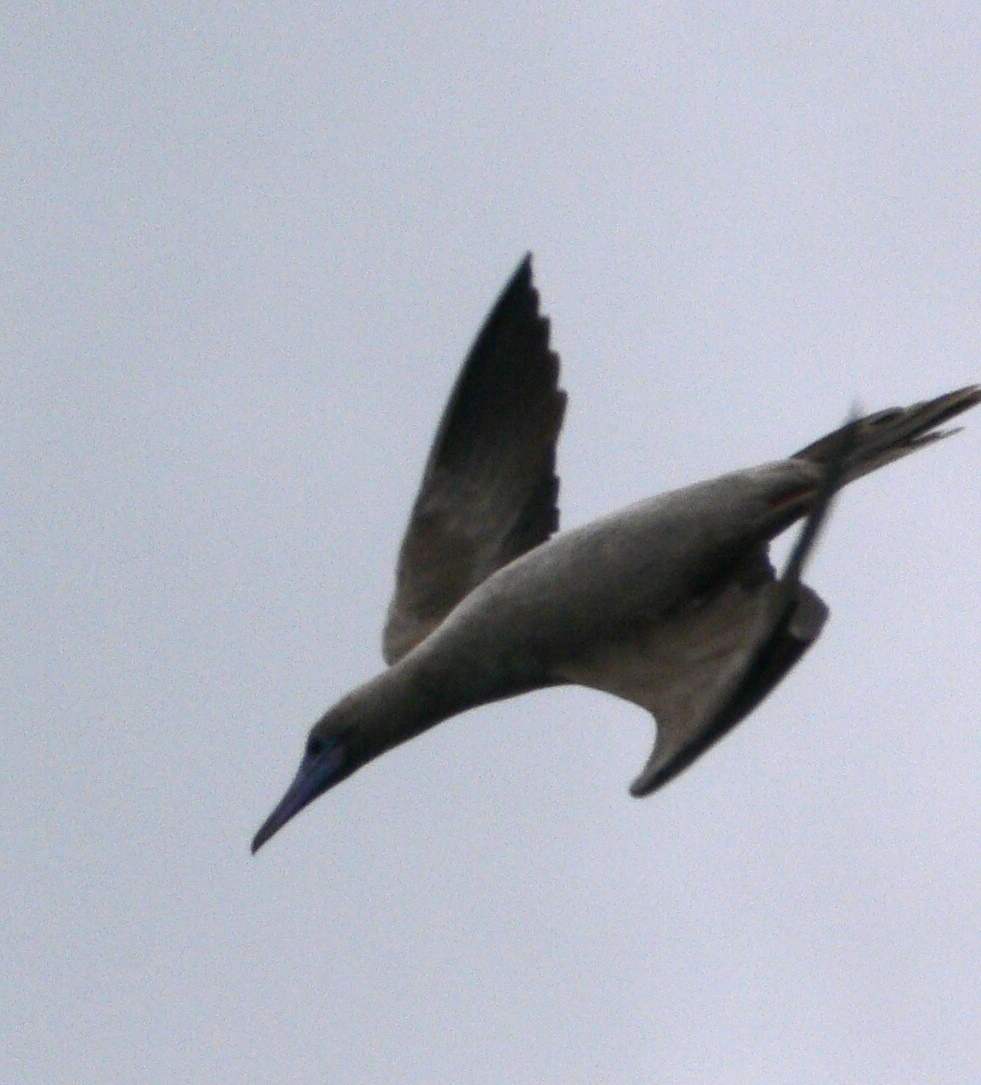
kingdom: Animalia
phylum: Chordata
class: Aves
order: Suliformes
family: Sulidae
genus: Sula
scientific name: Sula sula
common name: Red-footed booby
